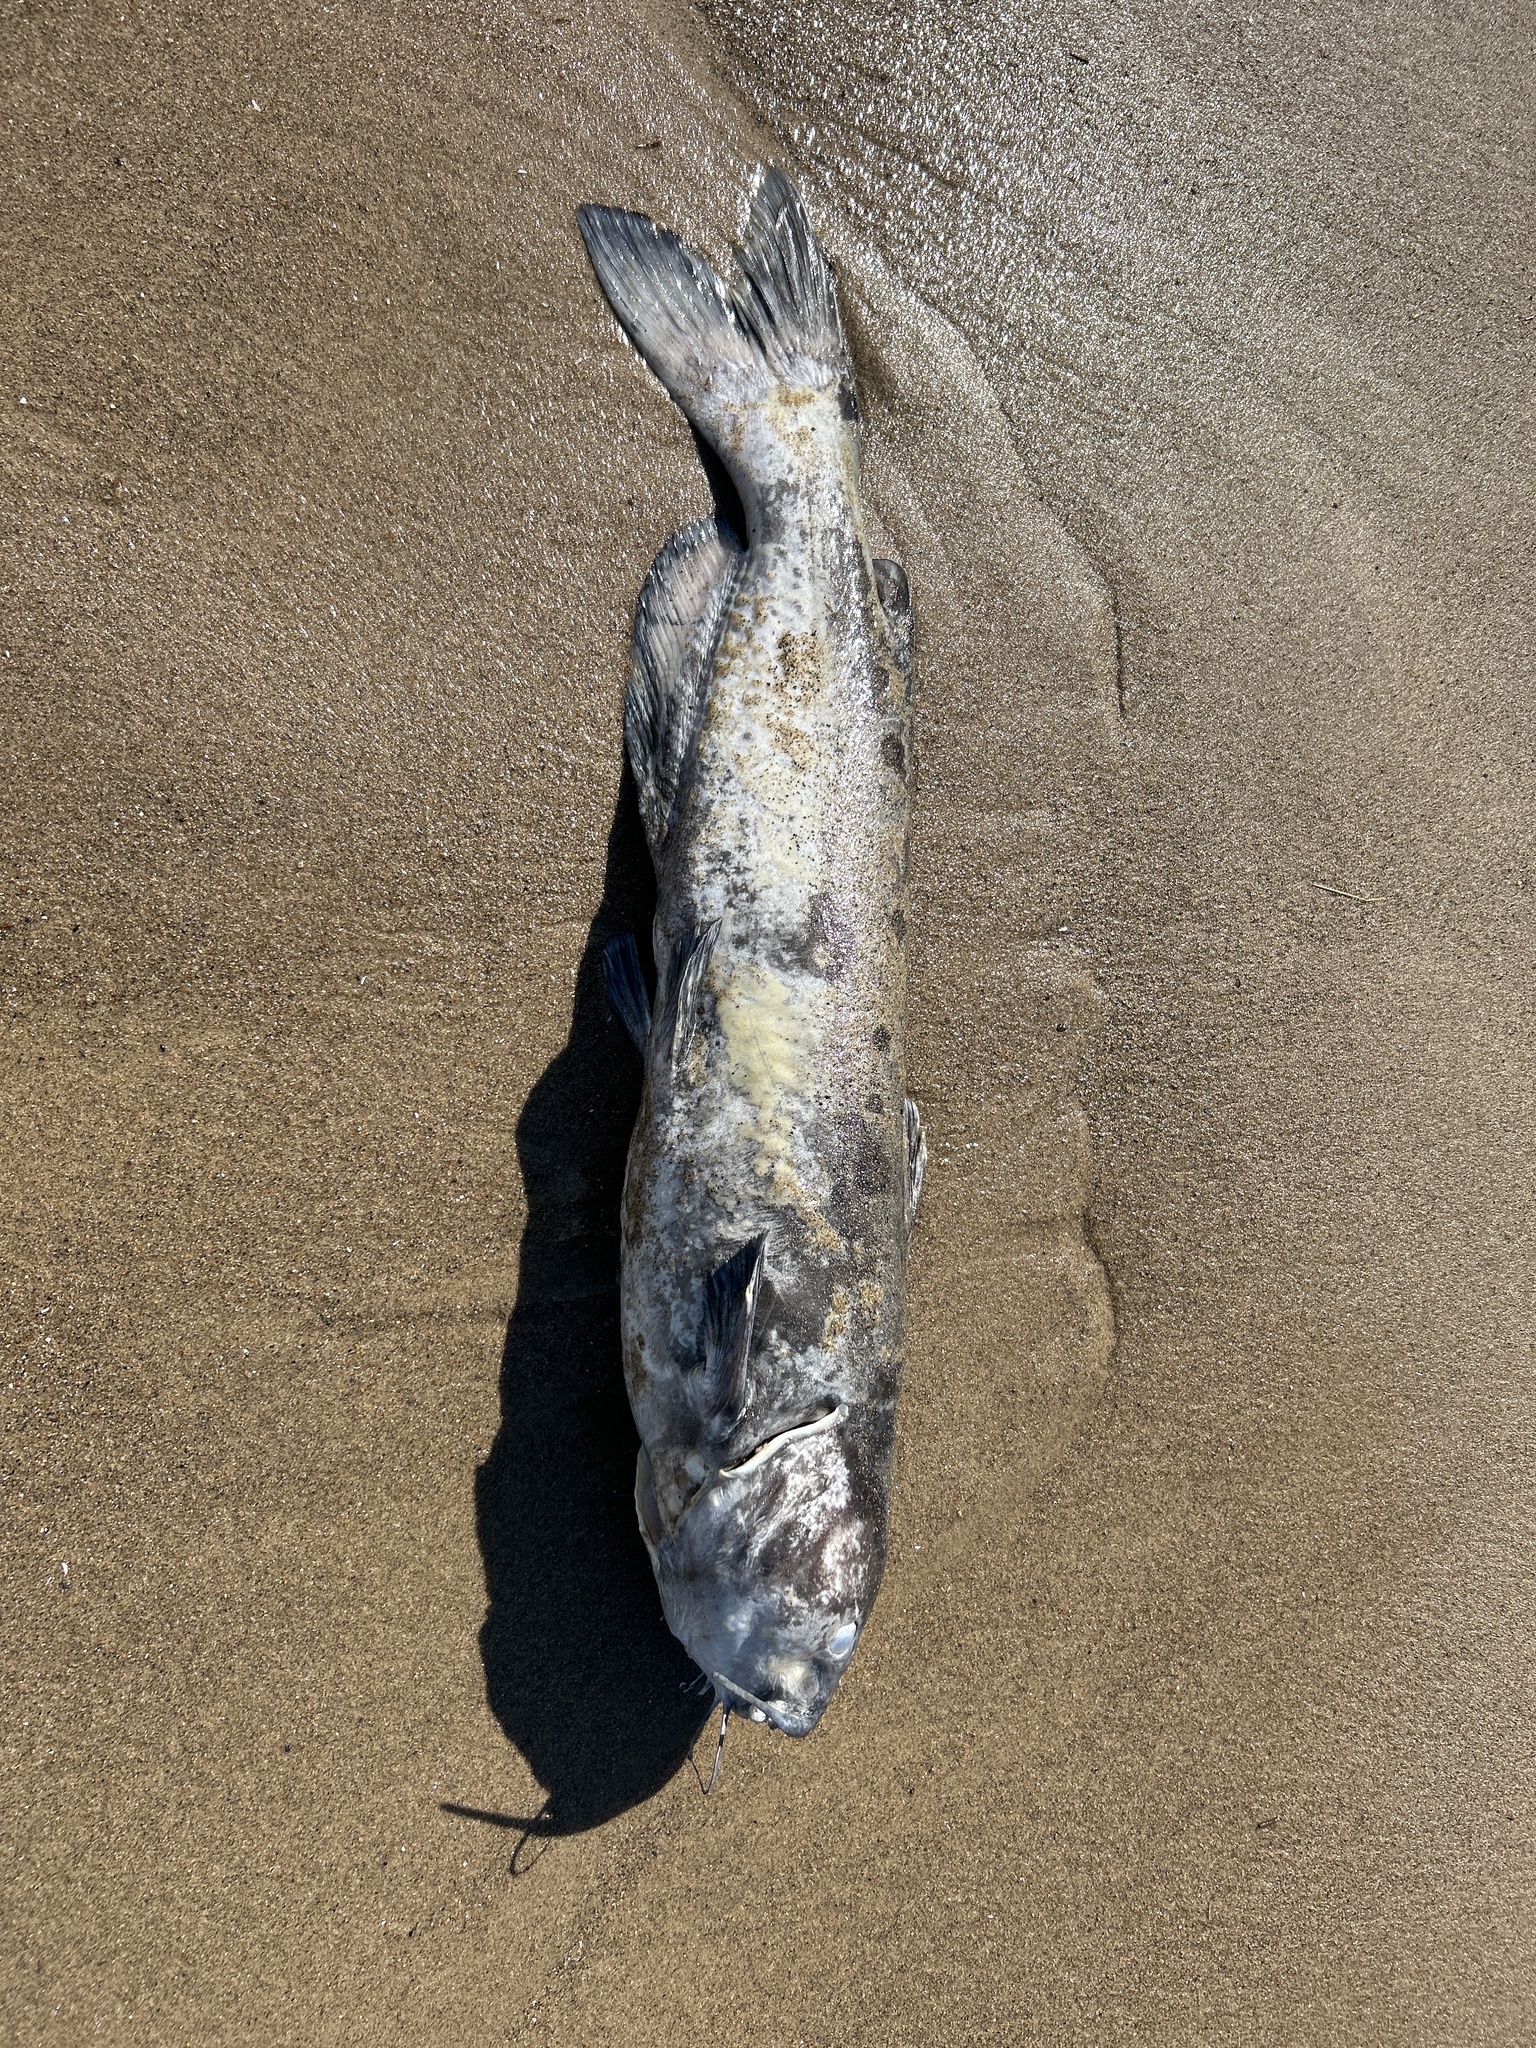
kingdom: Animalia
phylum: Chordata
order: Siluriformes
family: Ictaluridae
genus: Ictalurus
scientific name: Ictalurus punctatus
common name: Channel catfish
